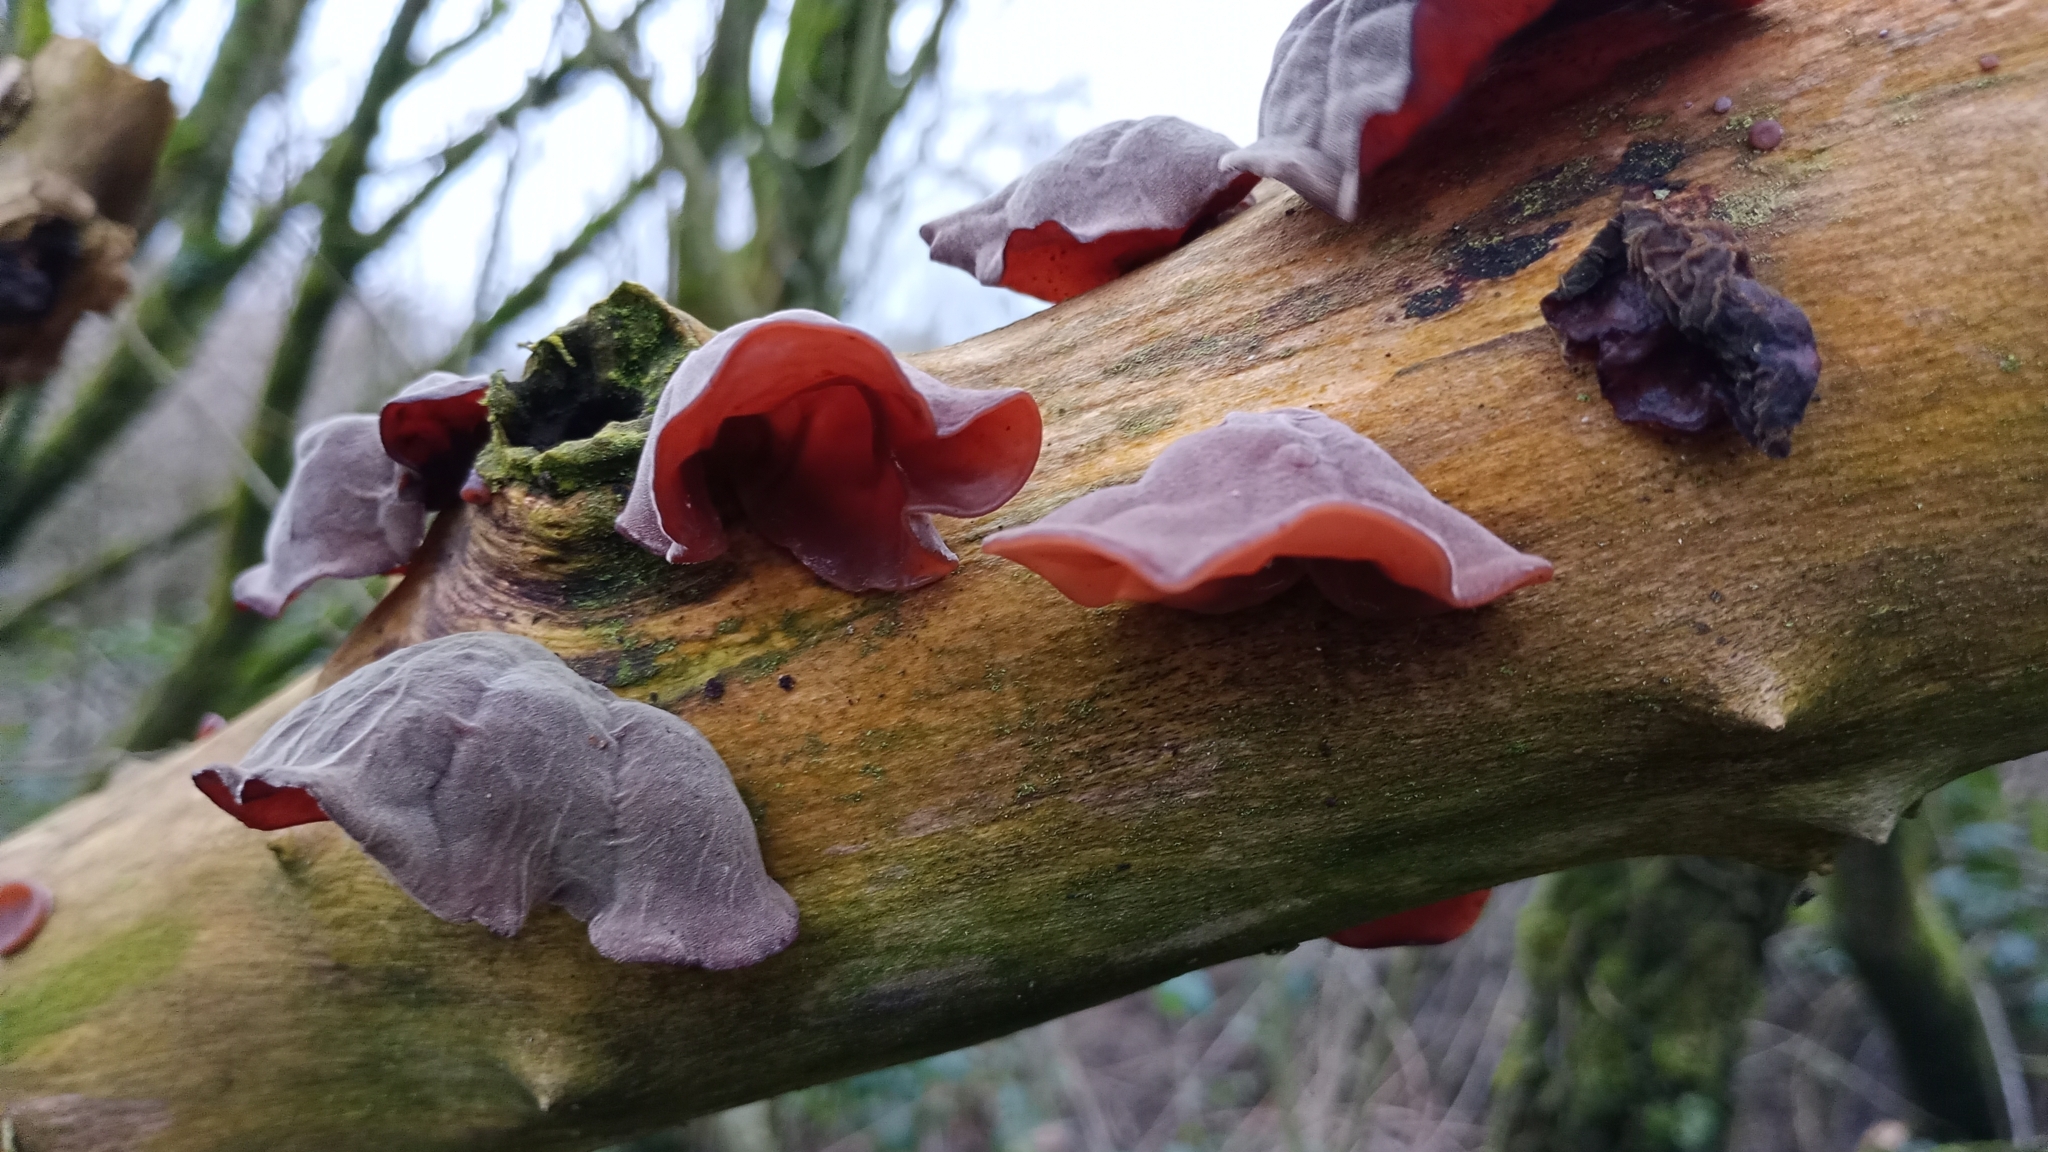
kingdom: Fungi
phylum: Basidiomycota
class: Agaricomycetes
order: Auriculariales
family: Auriculariaceae
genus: Auricularia
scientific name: Auricularia auricula-judae
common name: Jelly ear
